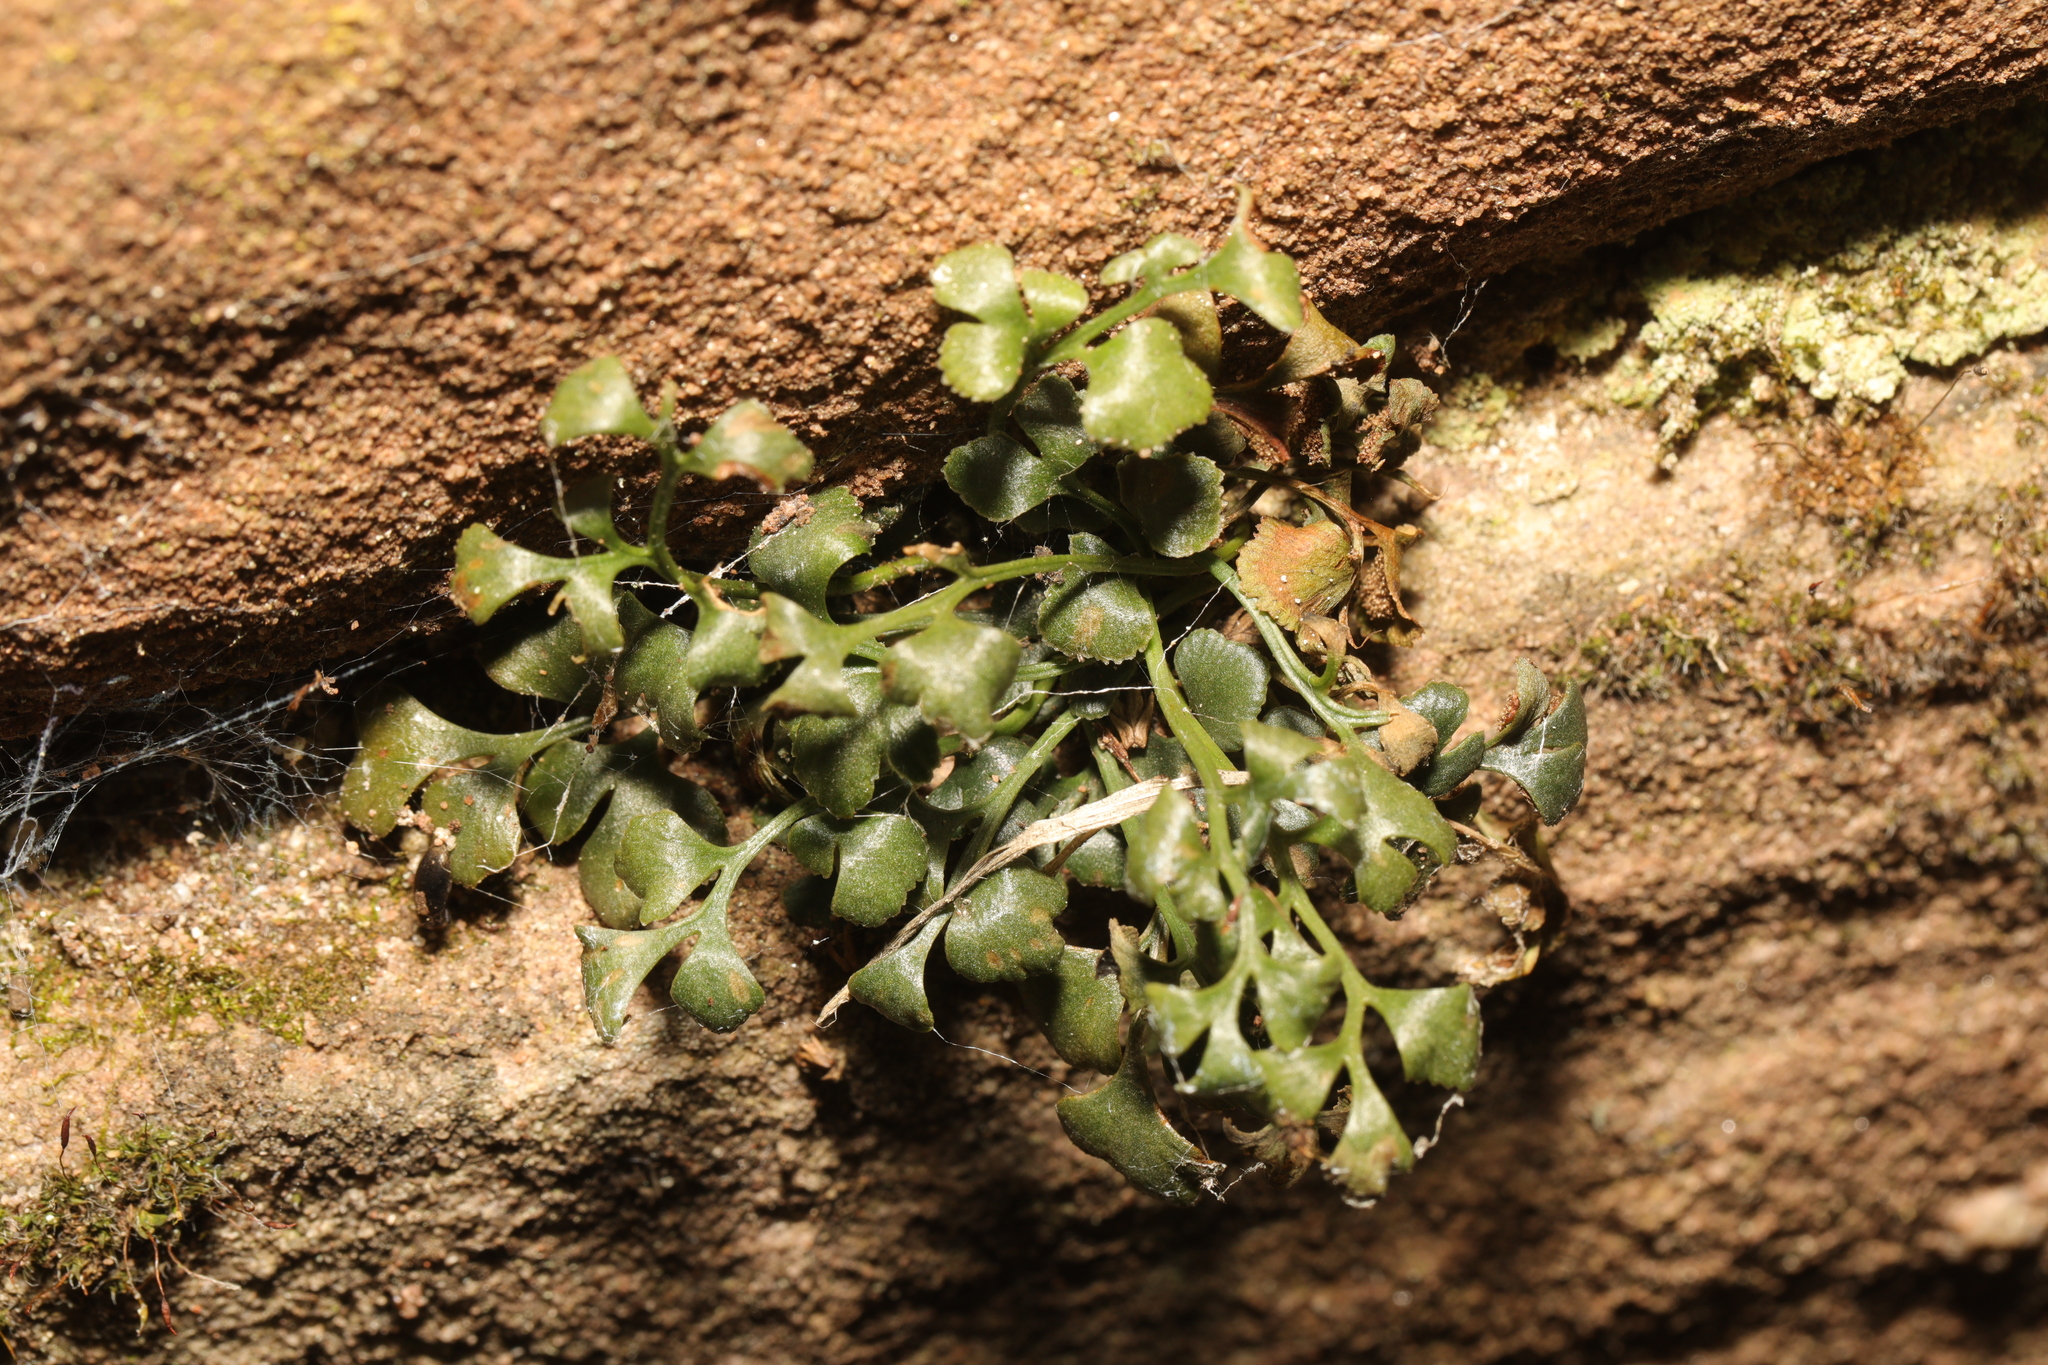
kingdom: Plantae
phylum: Tracheophyta
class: Polypodiopsida
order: Polypodiales
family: Aspleniaceae
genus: Asplenium
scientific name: Asplenium ruta-muraria
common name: Wall-rue
